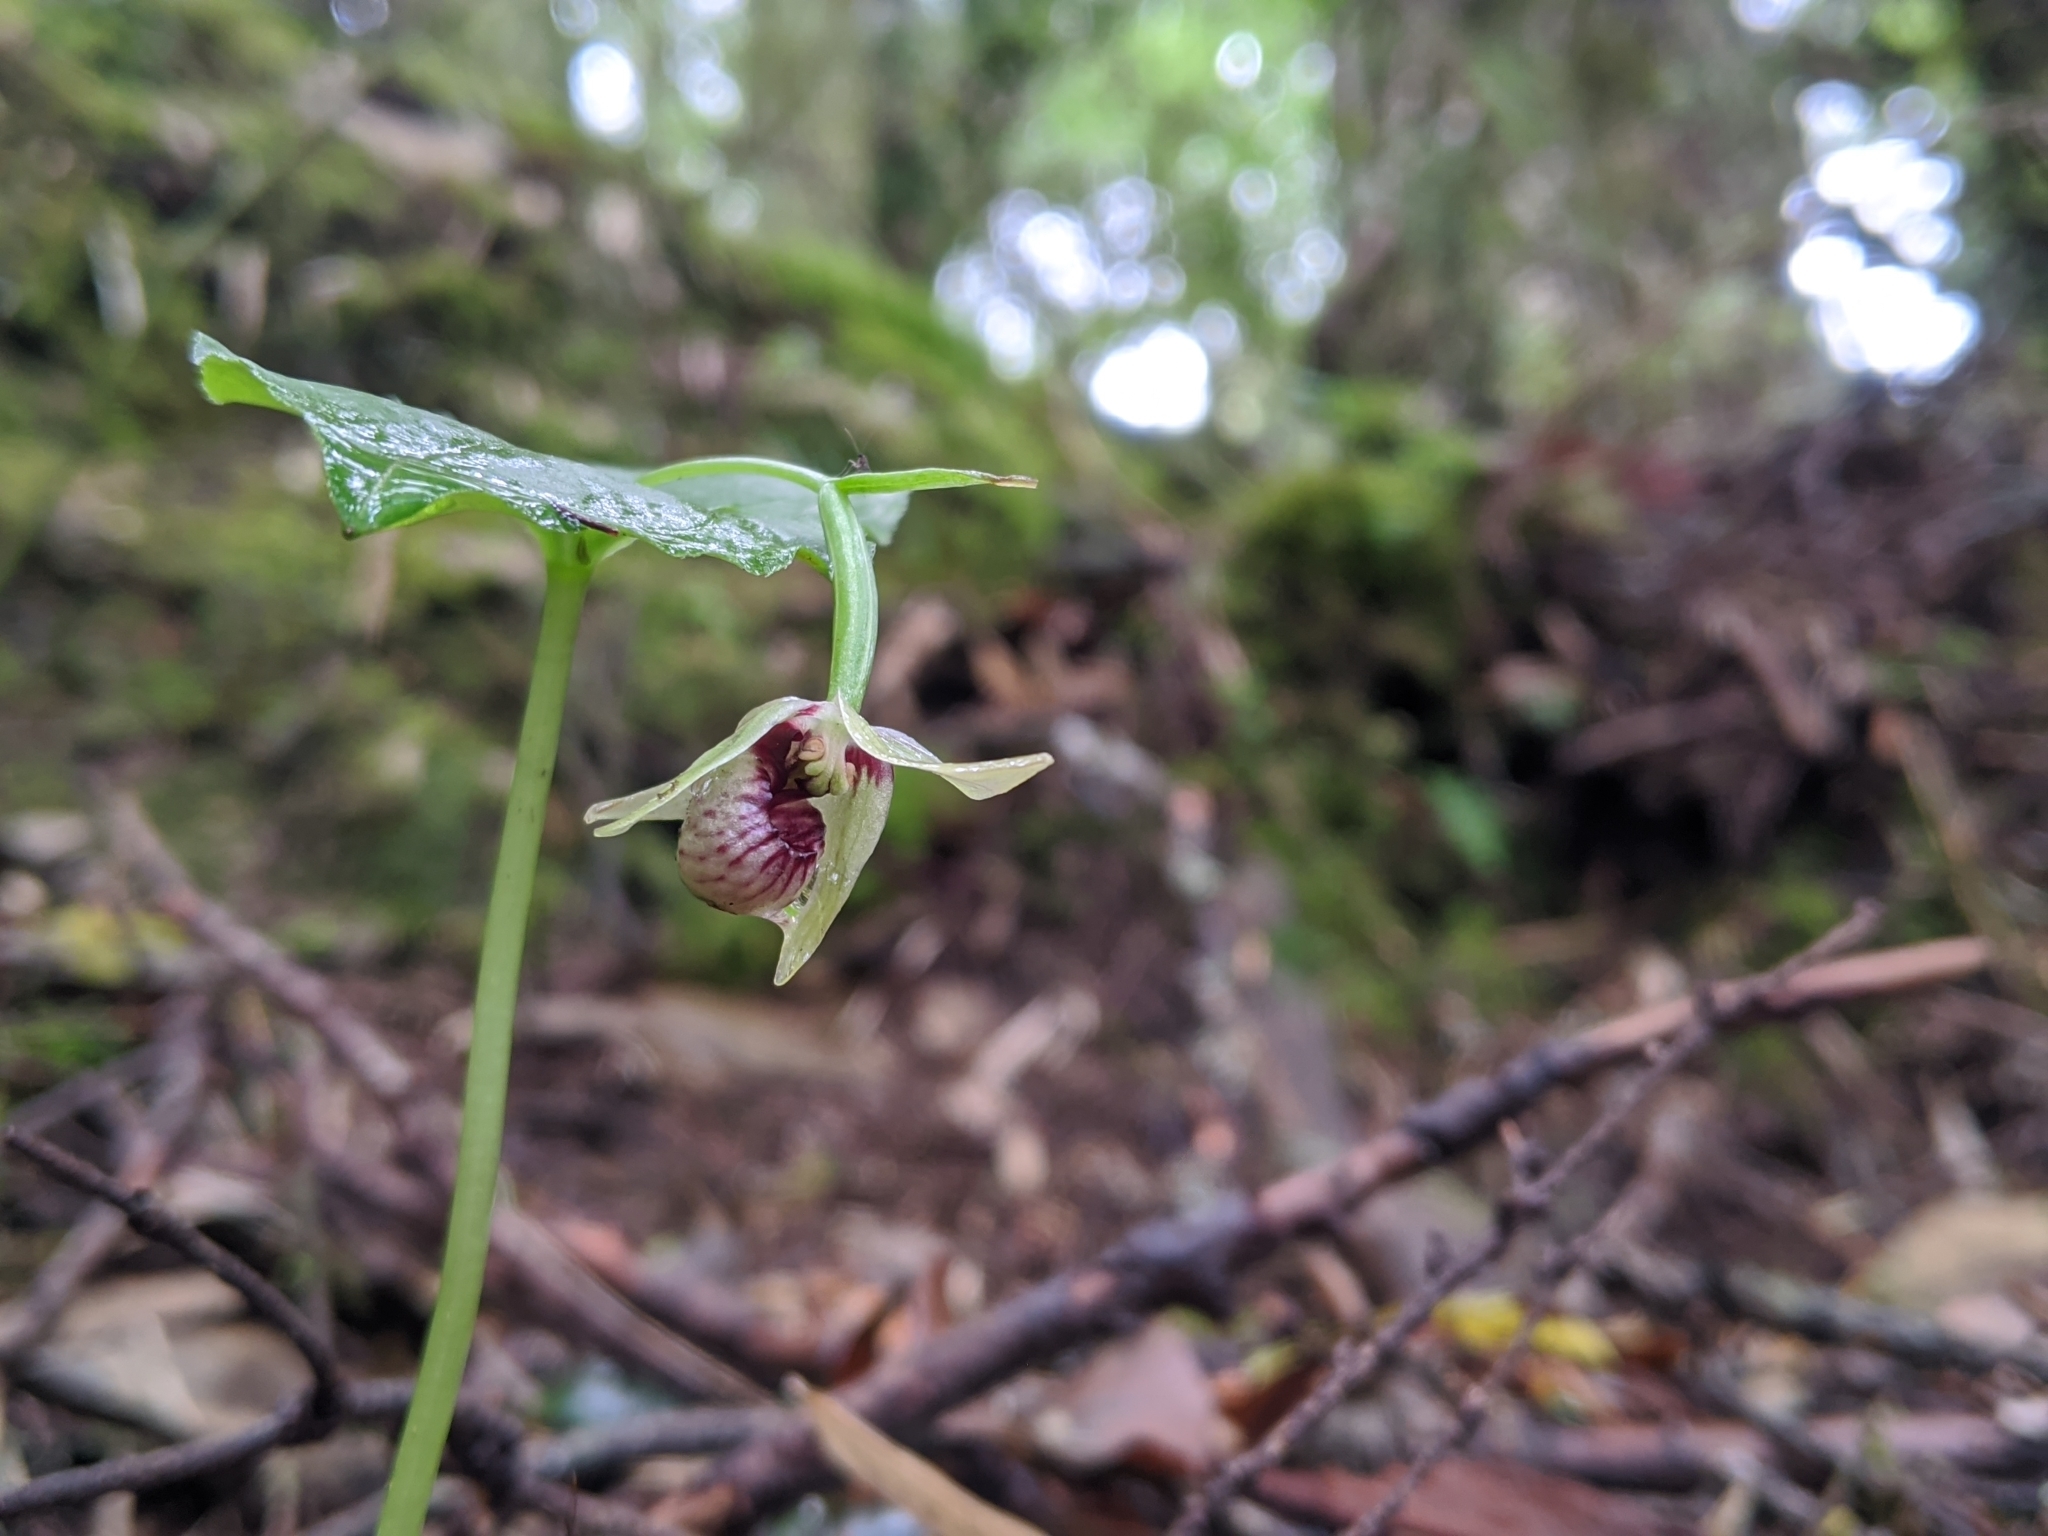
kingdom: Plantae
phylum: Tracheophyta
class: Liliopsida
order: Asparagales
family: Orchidaceae
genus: Cypripedium
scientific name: Cypripedium debile
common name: Frail cypripedium
